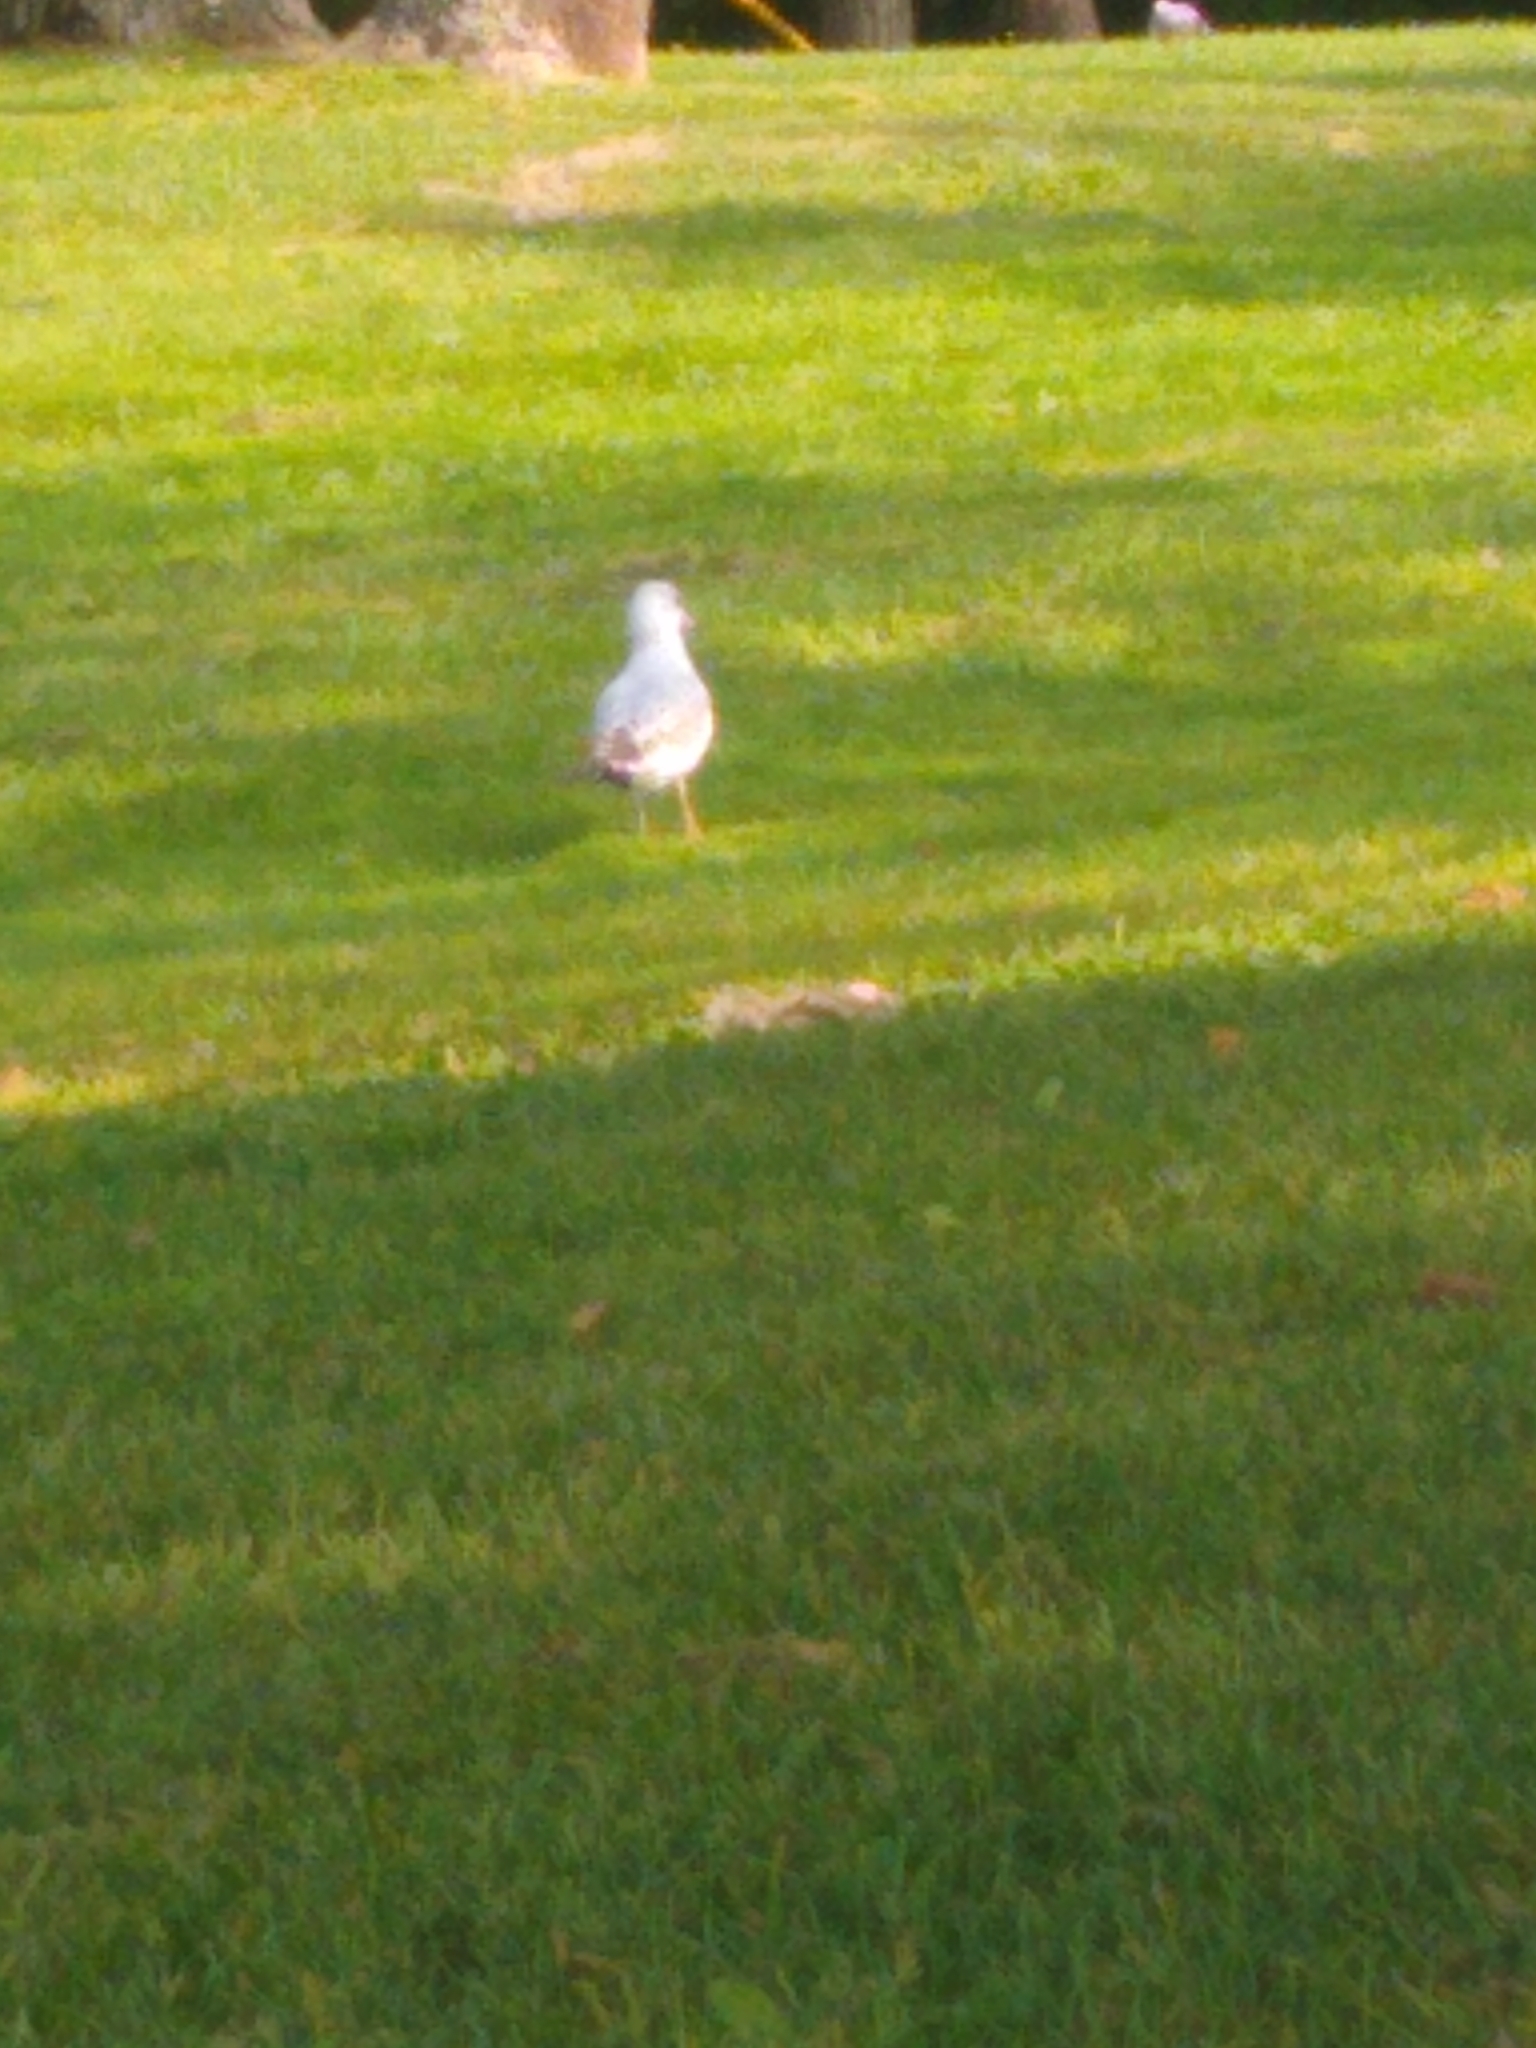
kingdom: Animalia
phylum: Chordata
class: Aves
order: Charadriiformes
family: Laridae
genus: Larus
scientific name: Larus delawarensis
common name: Ring-billed gull
